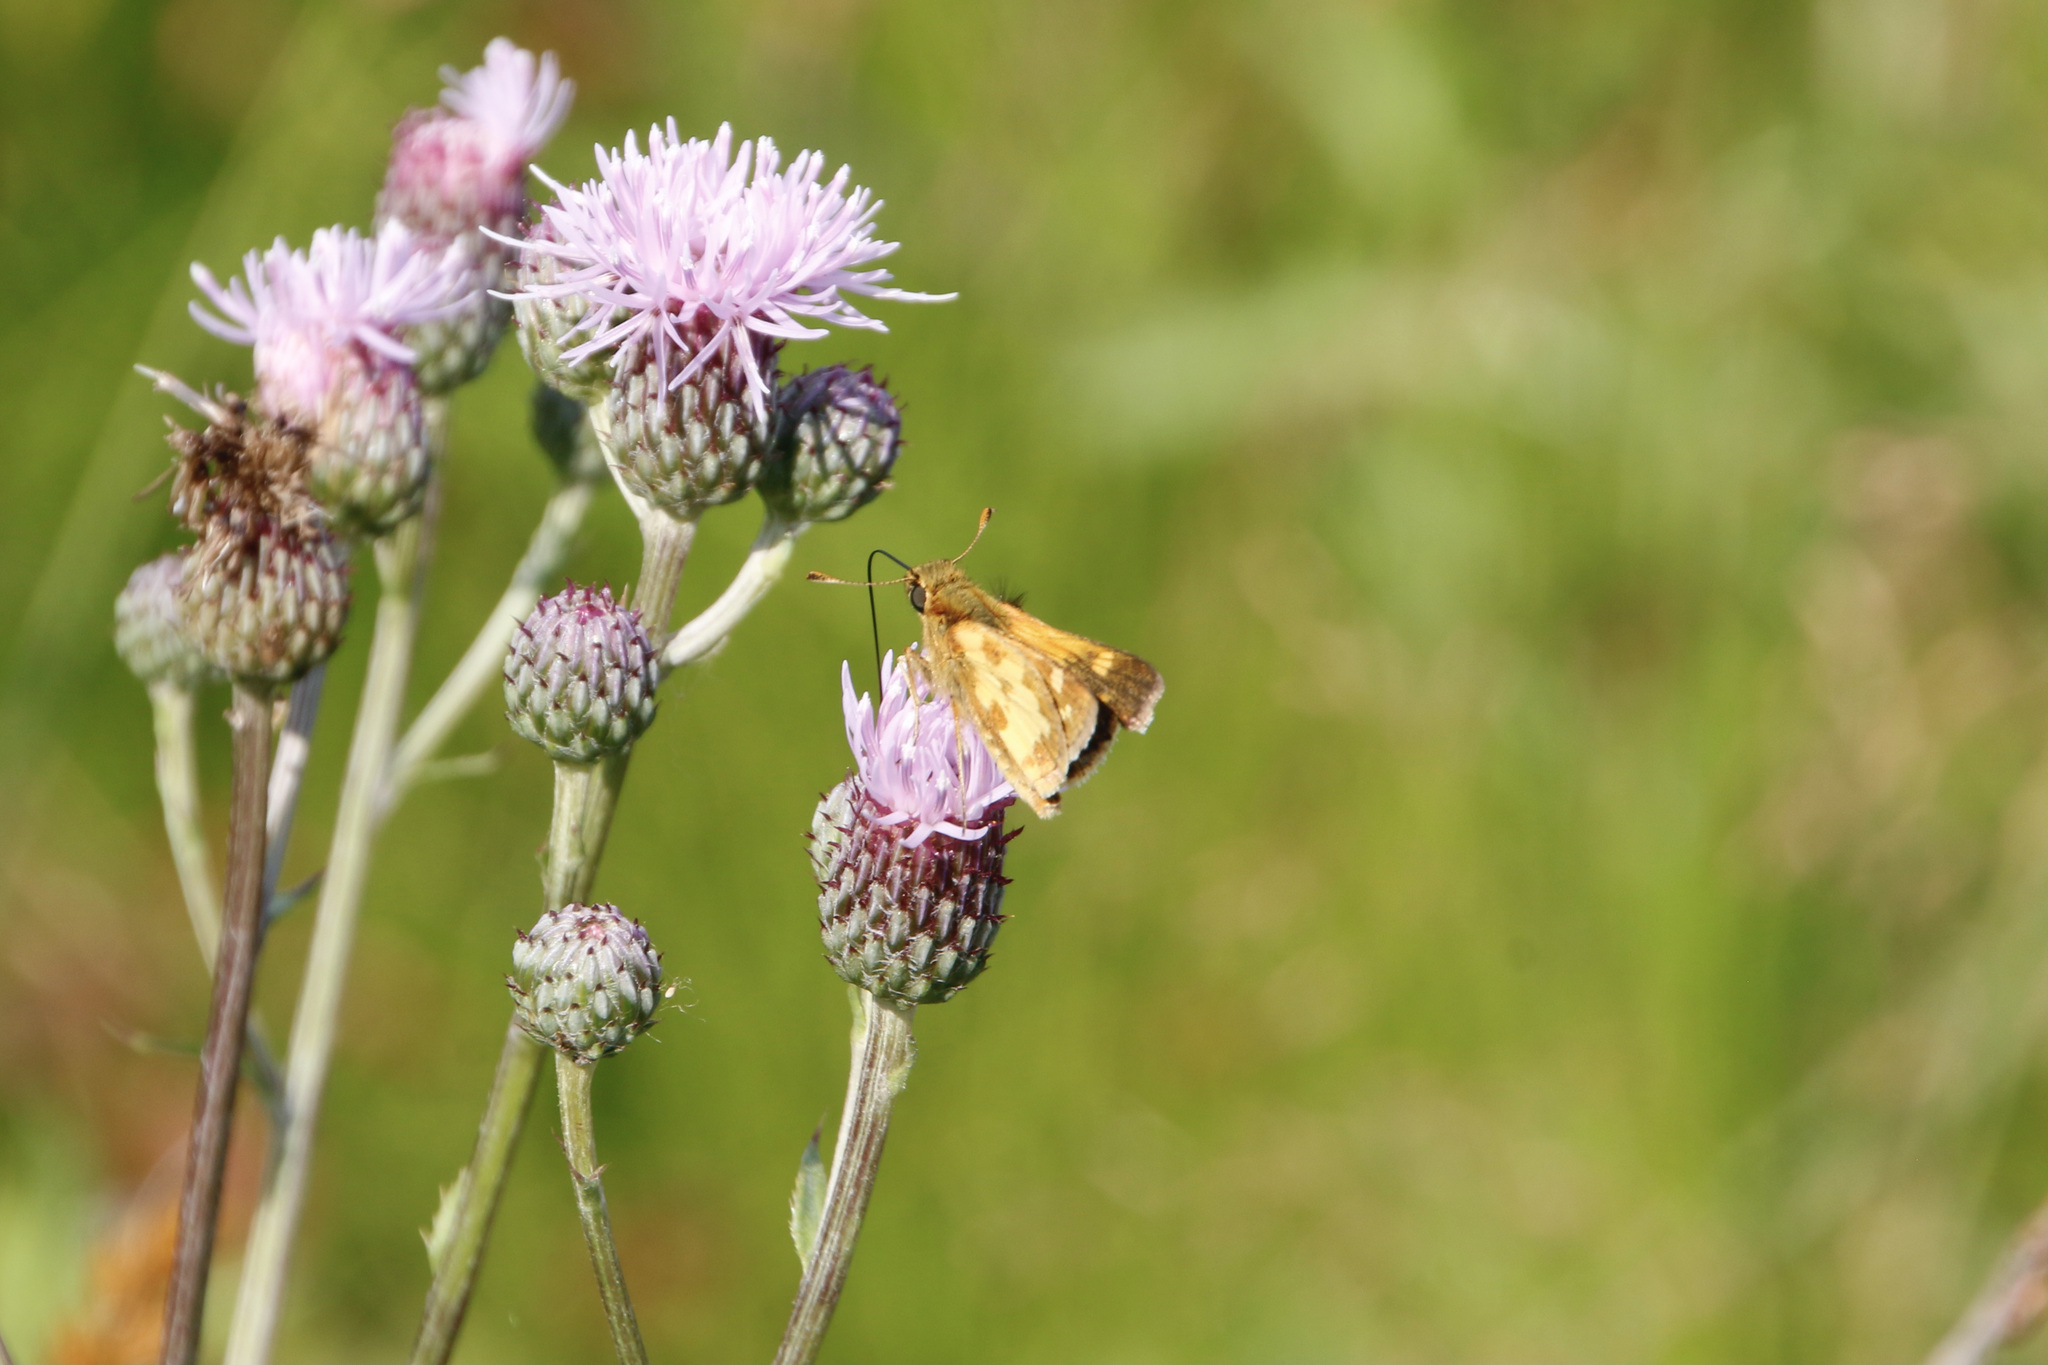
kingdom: Animalia
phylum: Arthropoda
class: Insecta
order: Lepidoptera
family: Hesperiidae
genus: Polites
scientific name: Polites coras
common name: Peck's skipper
